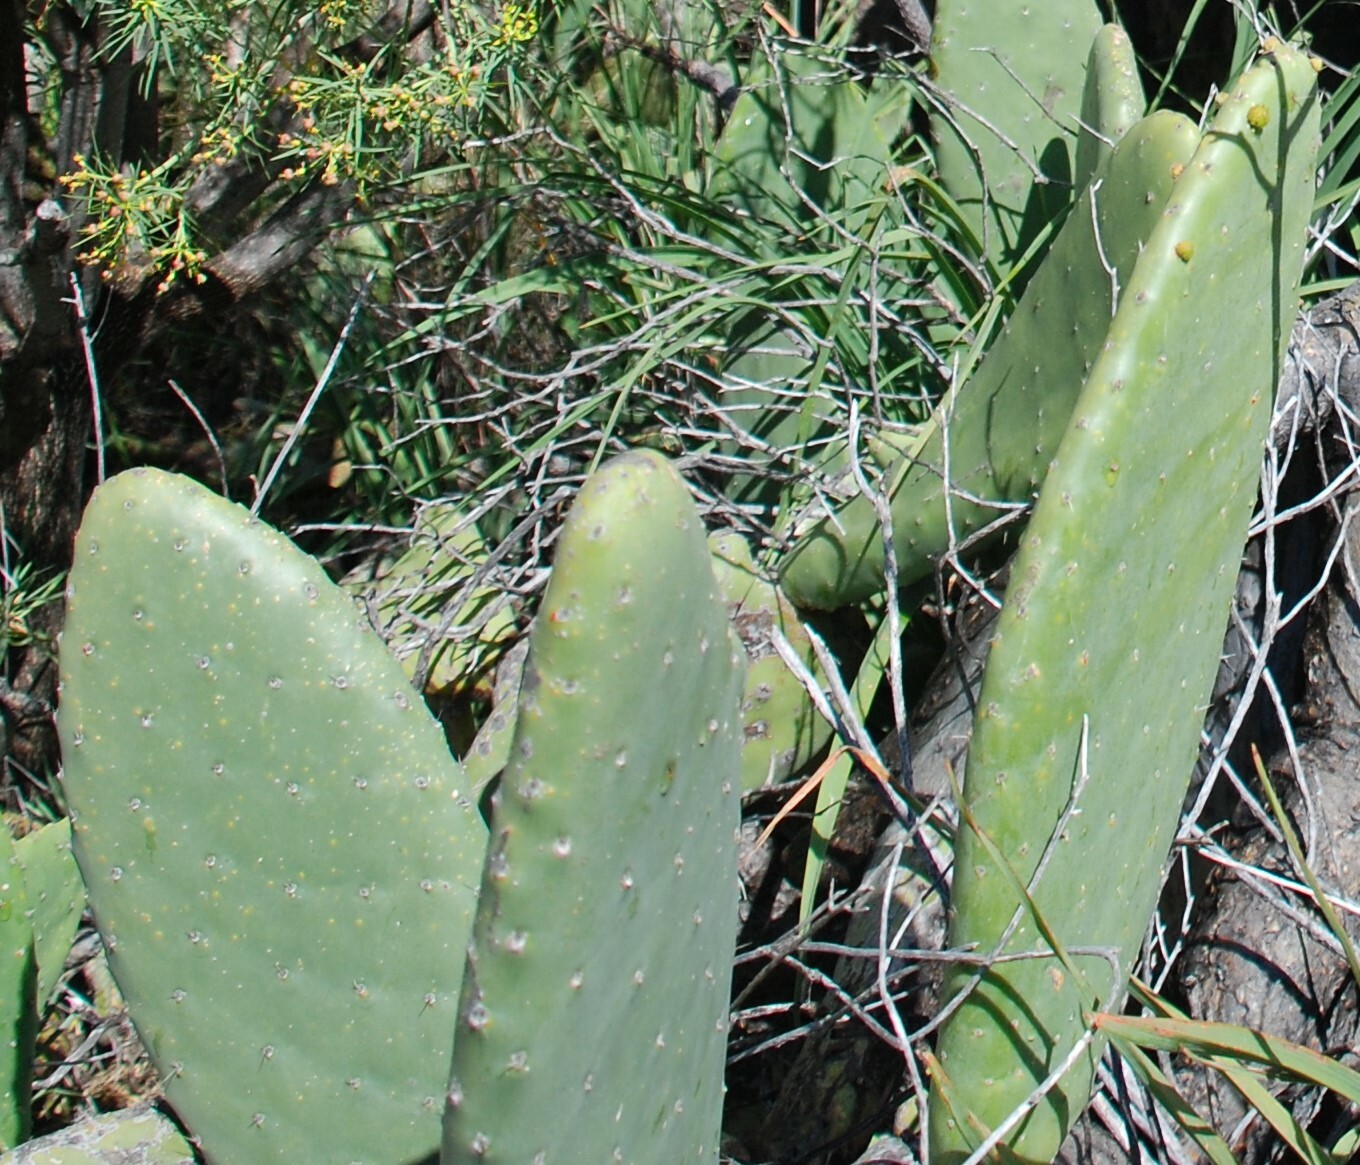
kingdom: Plantae
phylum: Tracheophyta
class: Magnoliopsida
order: Caryophyllales
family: Cactaceae
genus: Opuntia
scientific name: Opuntia ficus-indica
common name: Barbary fig
